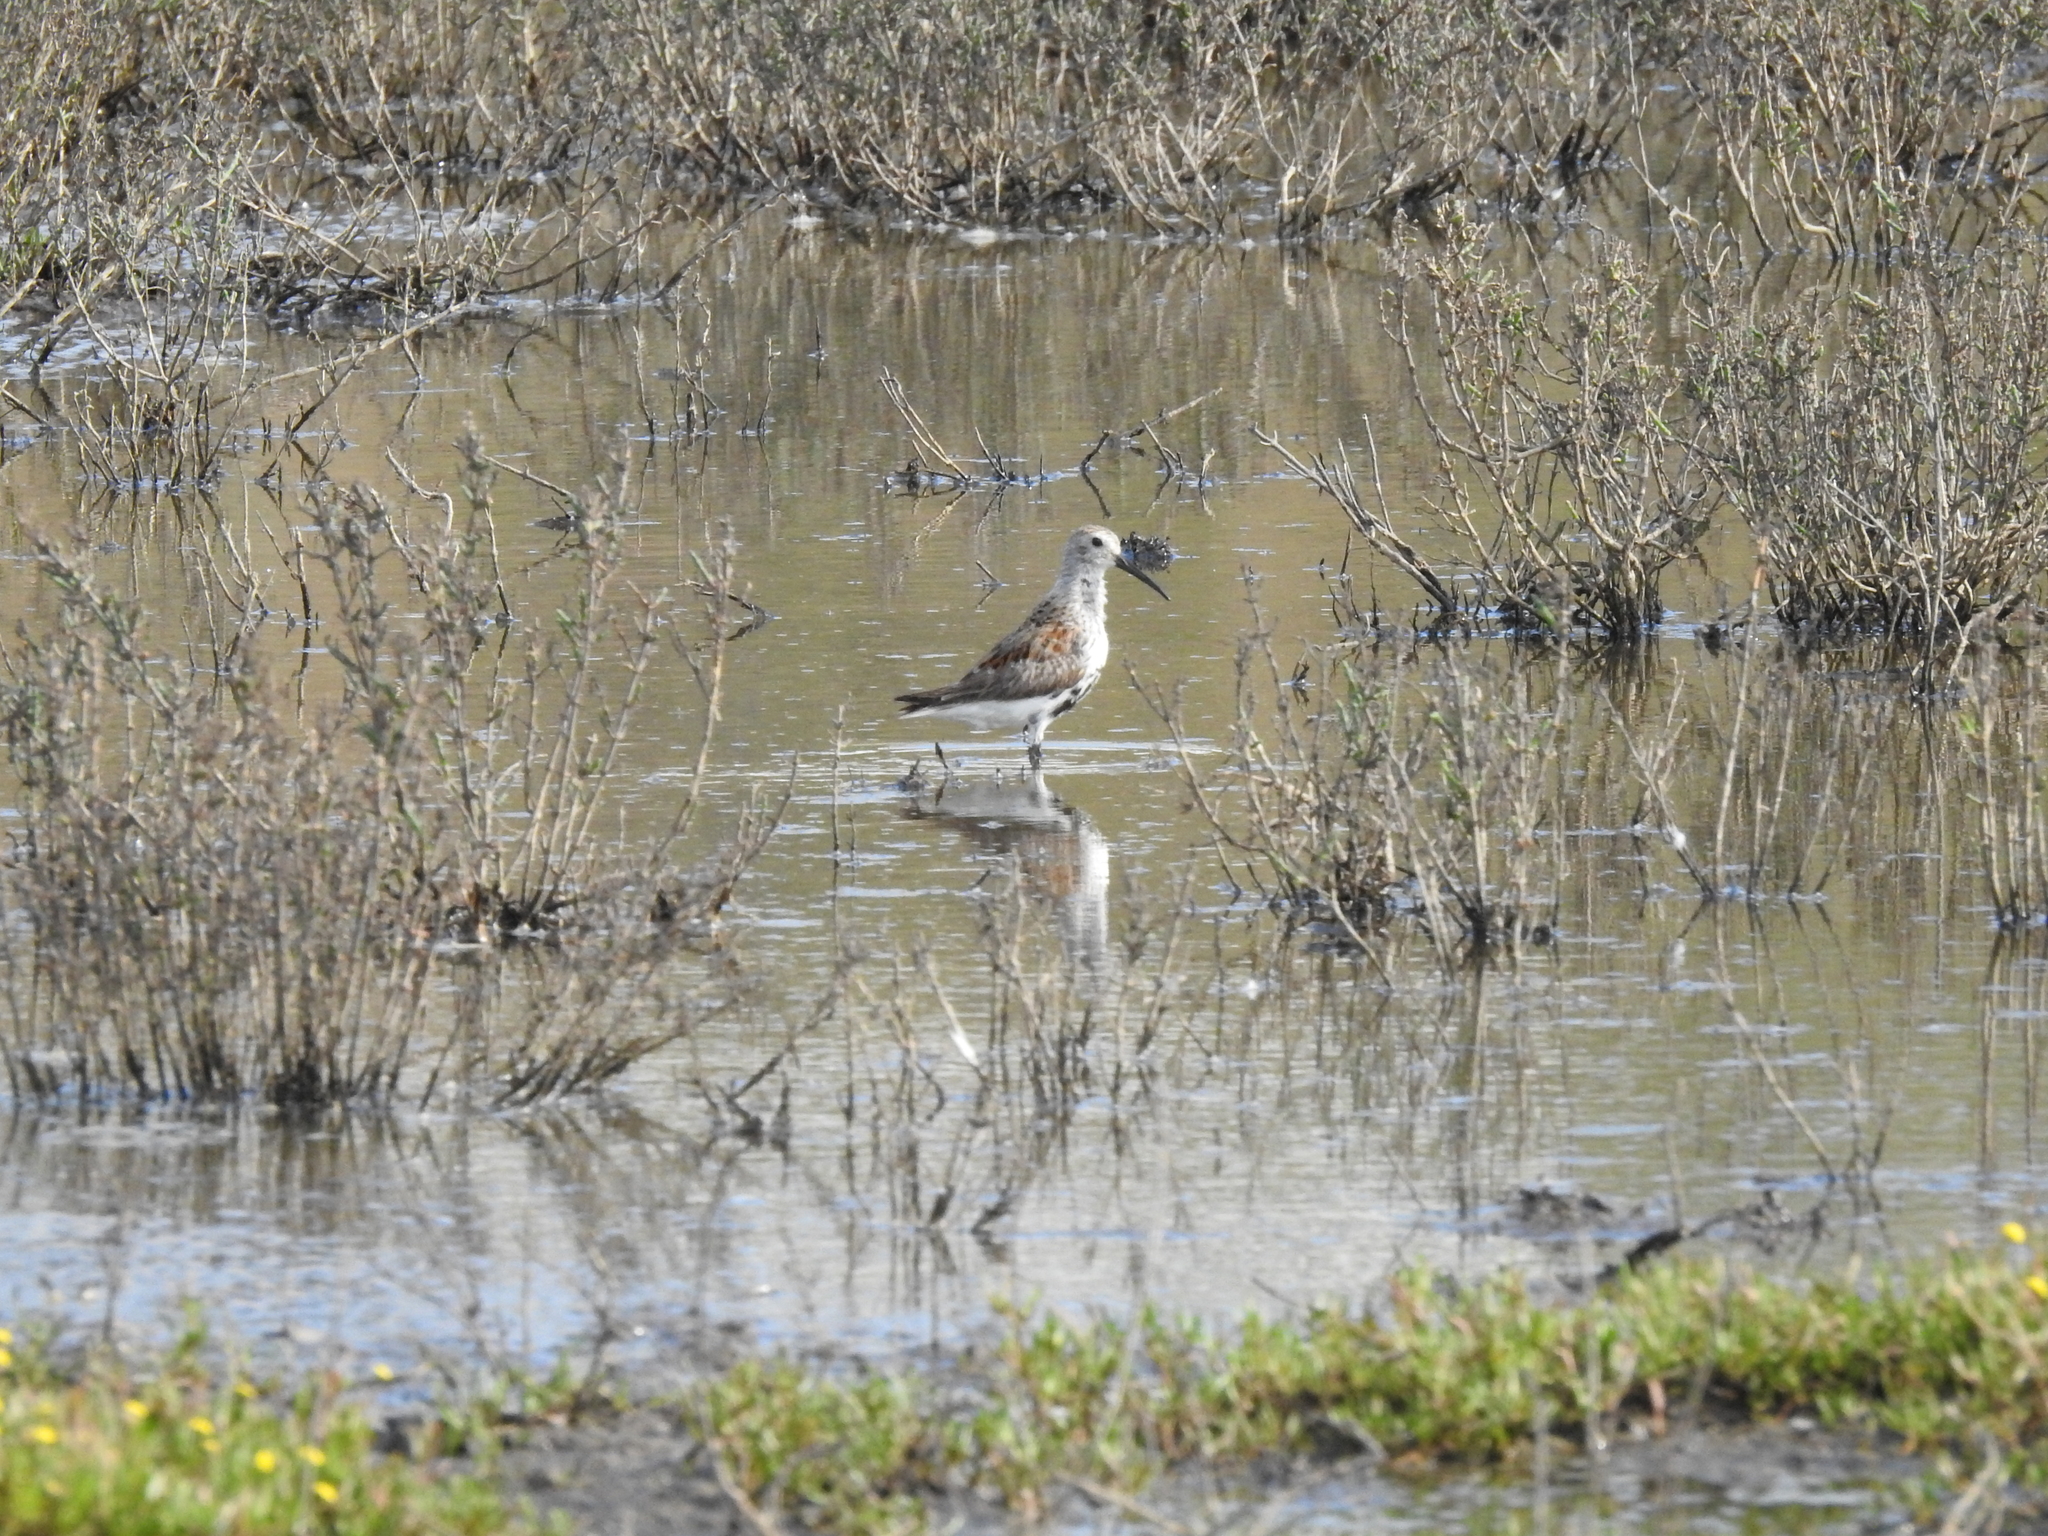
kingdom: Animalia
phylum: Chordata
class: Aves
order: Charadriiformes
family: Scolopacidae
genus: Calidris
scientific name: Calidris alpina
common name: Dunlin
